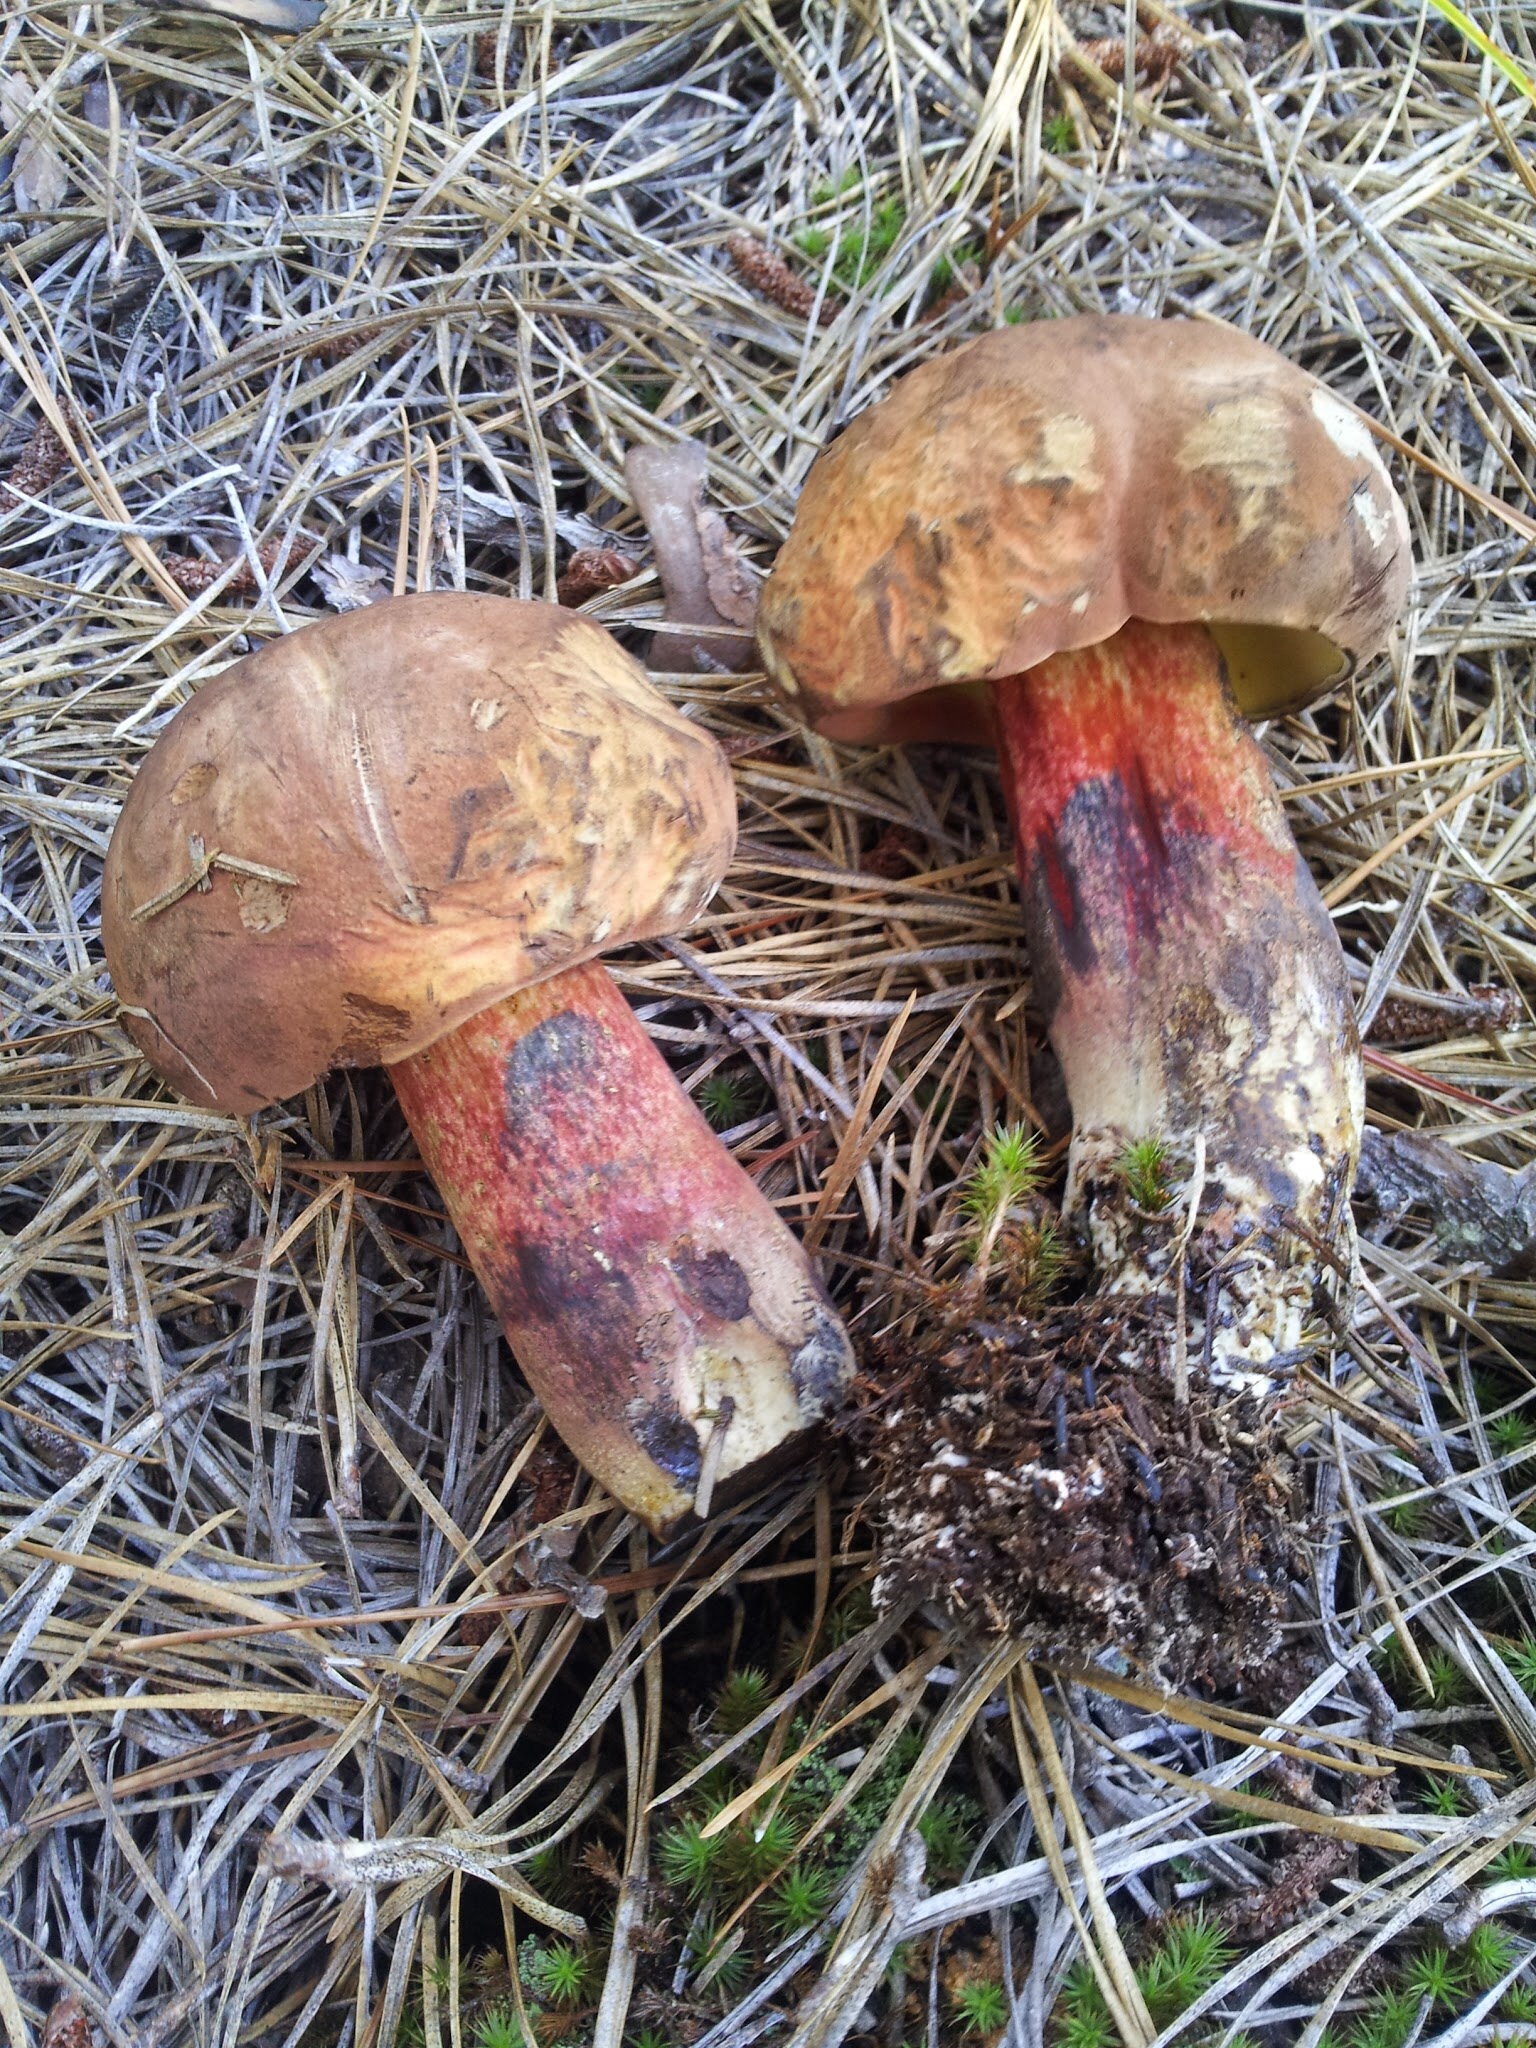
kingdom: Fungi
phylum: Basidiomycota
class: Agaricomycetes
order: Boletales
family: Boletaceae
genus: Boletus
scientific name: Boletus
